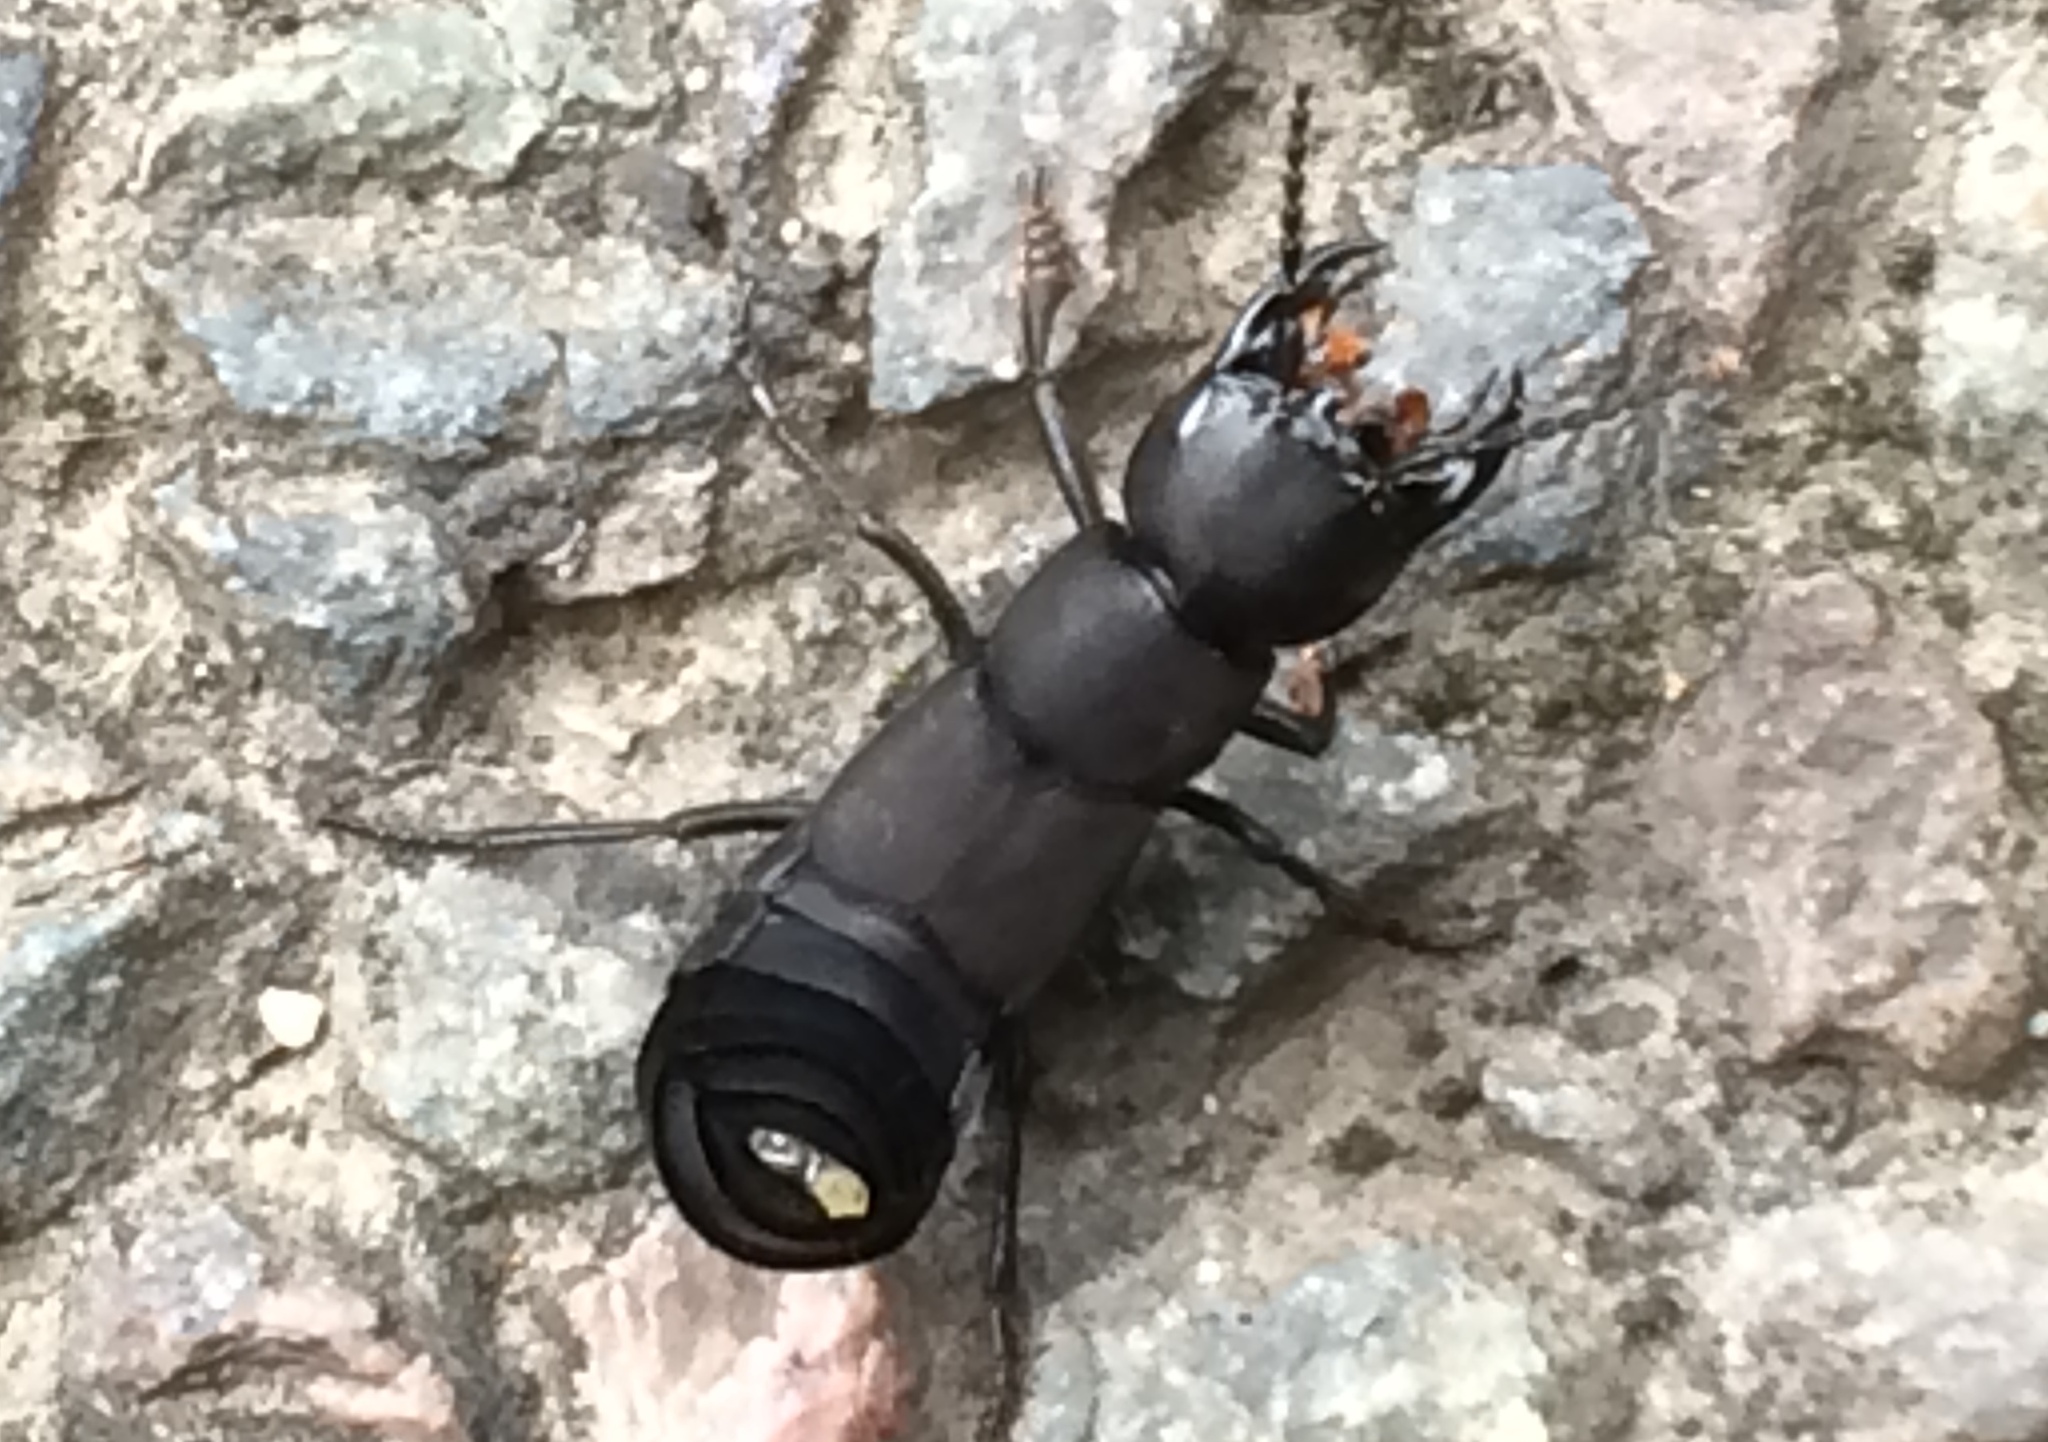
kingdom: Animalia
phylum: Arthropoda
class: Insecta
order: Coleoptera
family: Staphylinidae
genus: Ocypus
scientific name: Ocypus olens
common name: Devil's coach-horse
